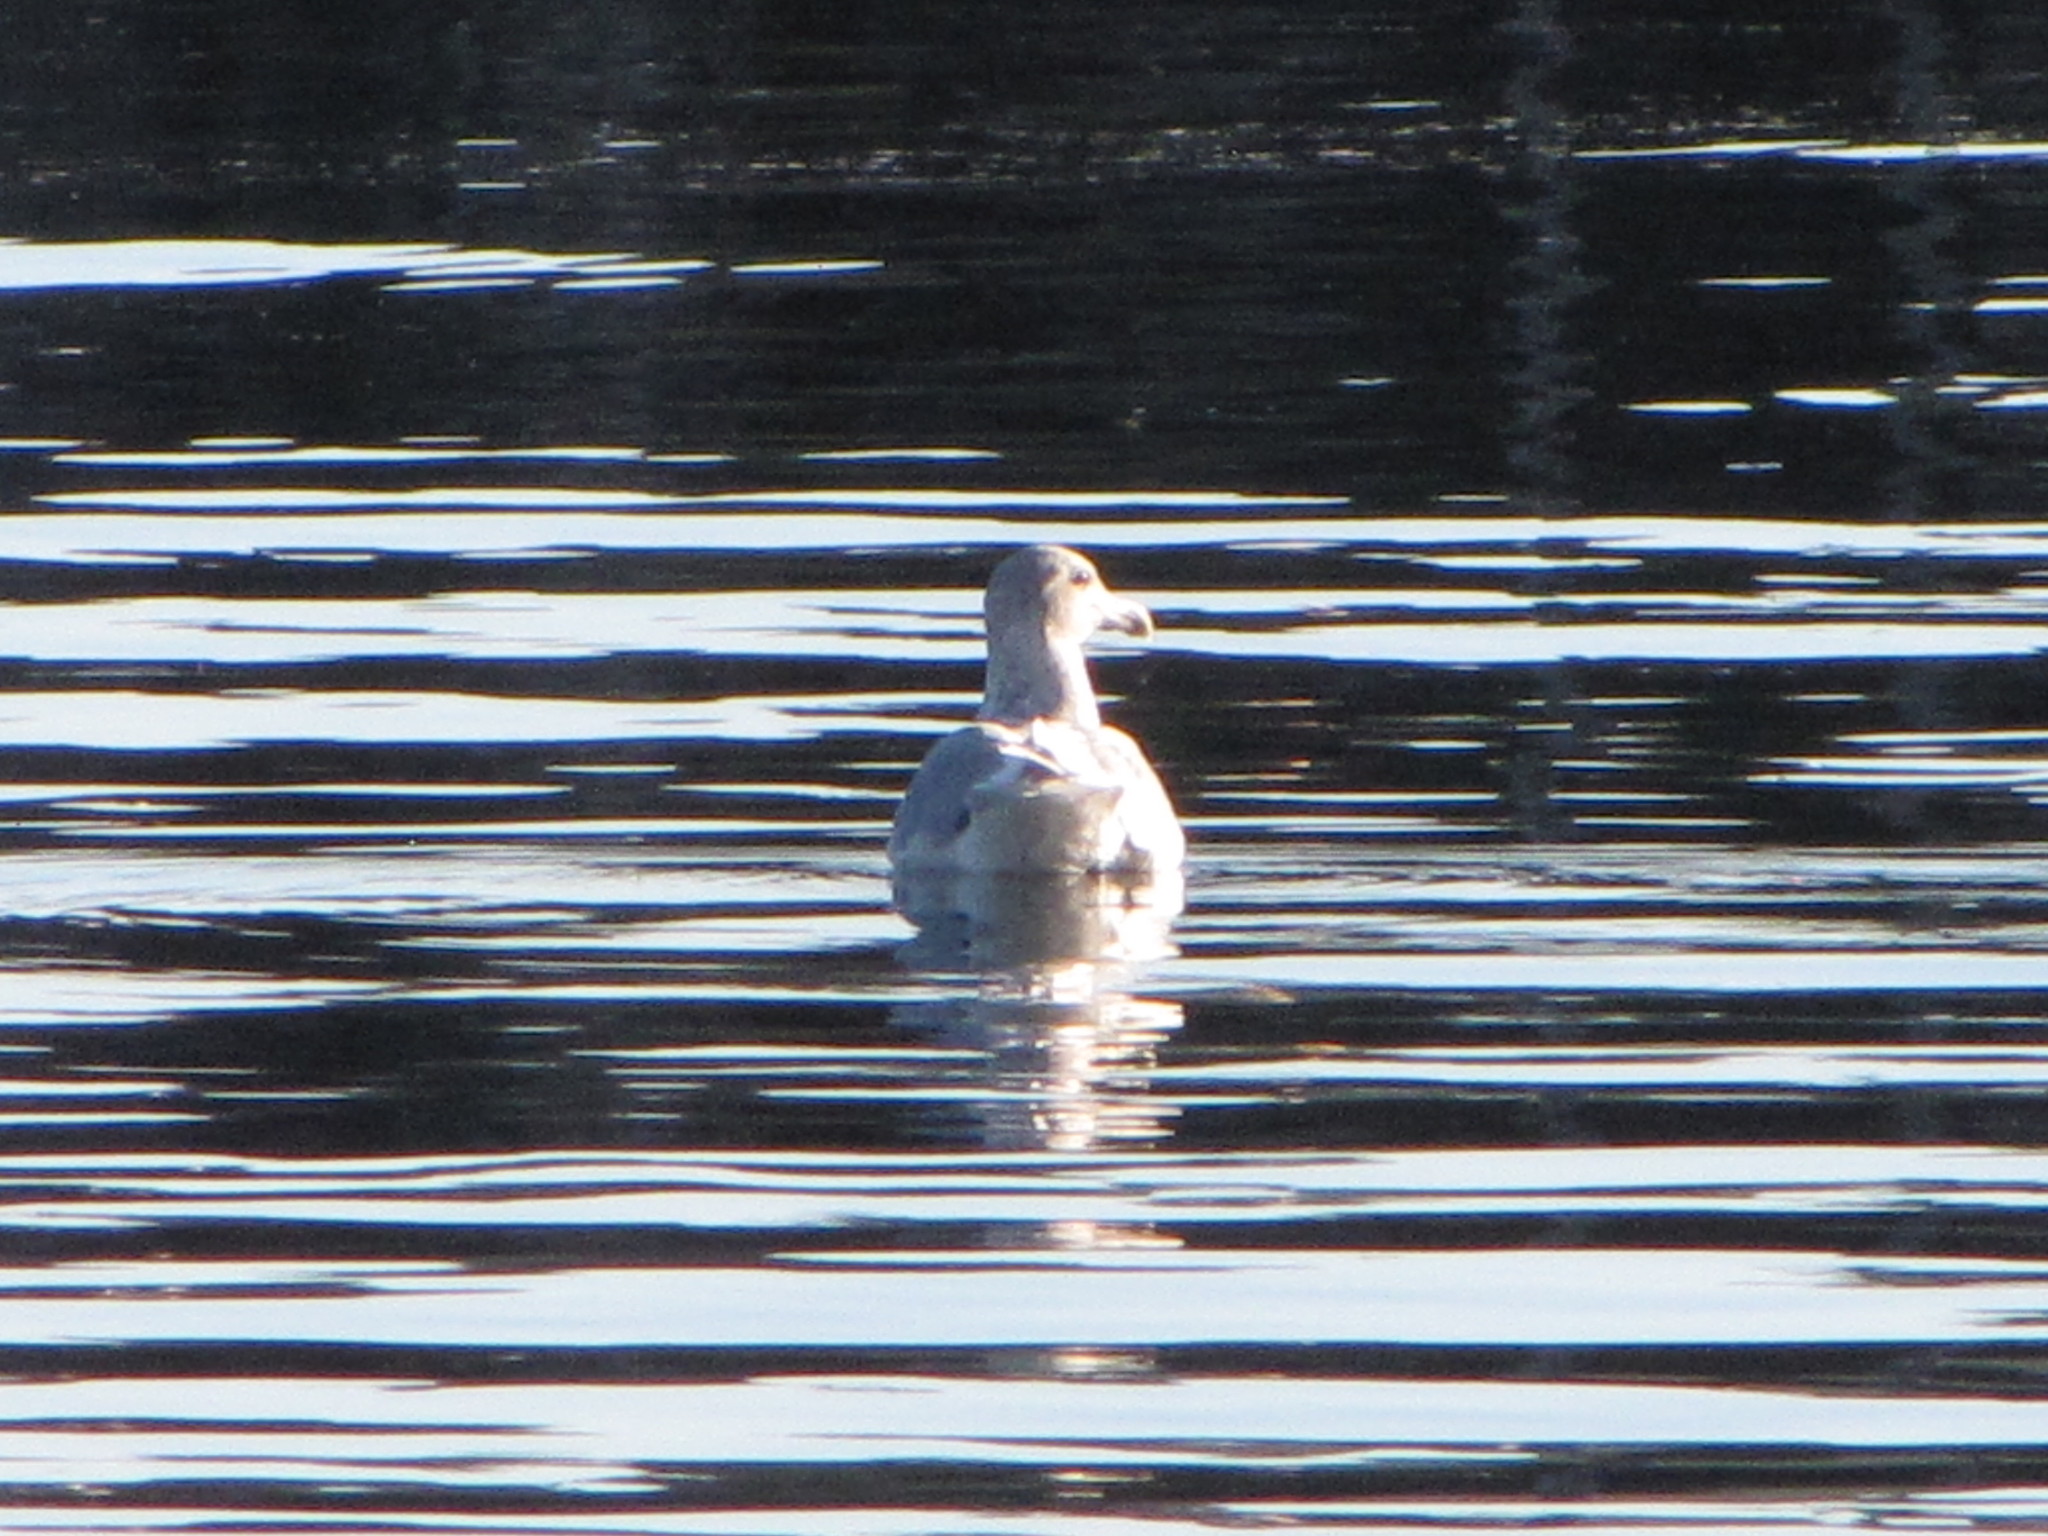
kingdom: Animalia
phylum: Chordata
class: Aves
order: Charadriiformes
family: Laridae
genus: Larus
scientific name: Larus
